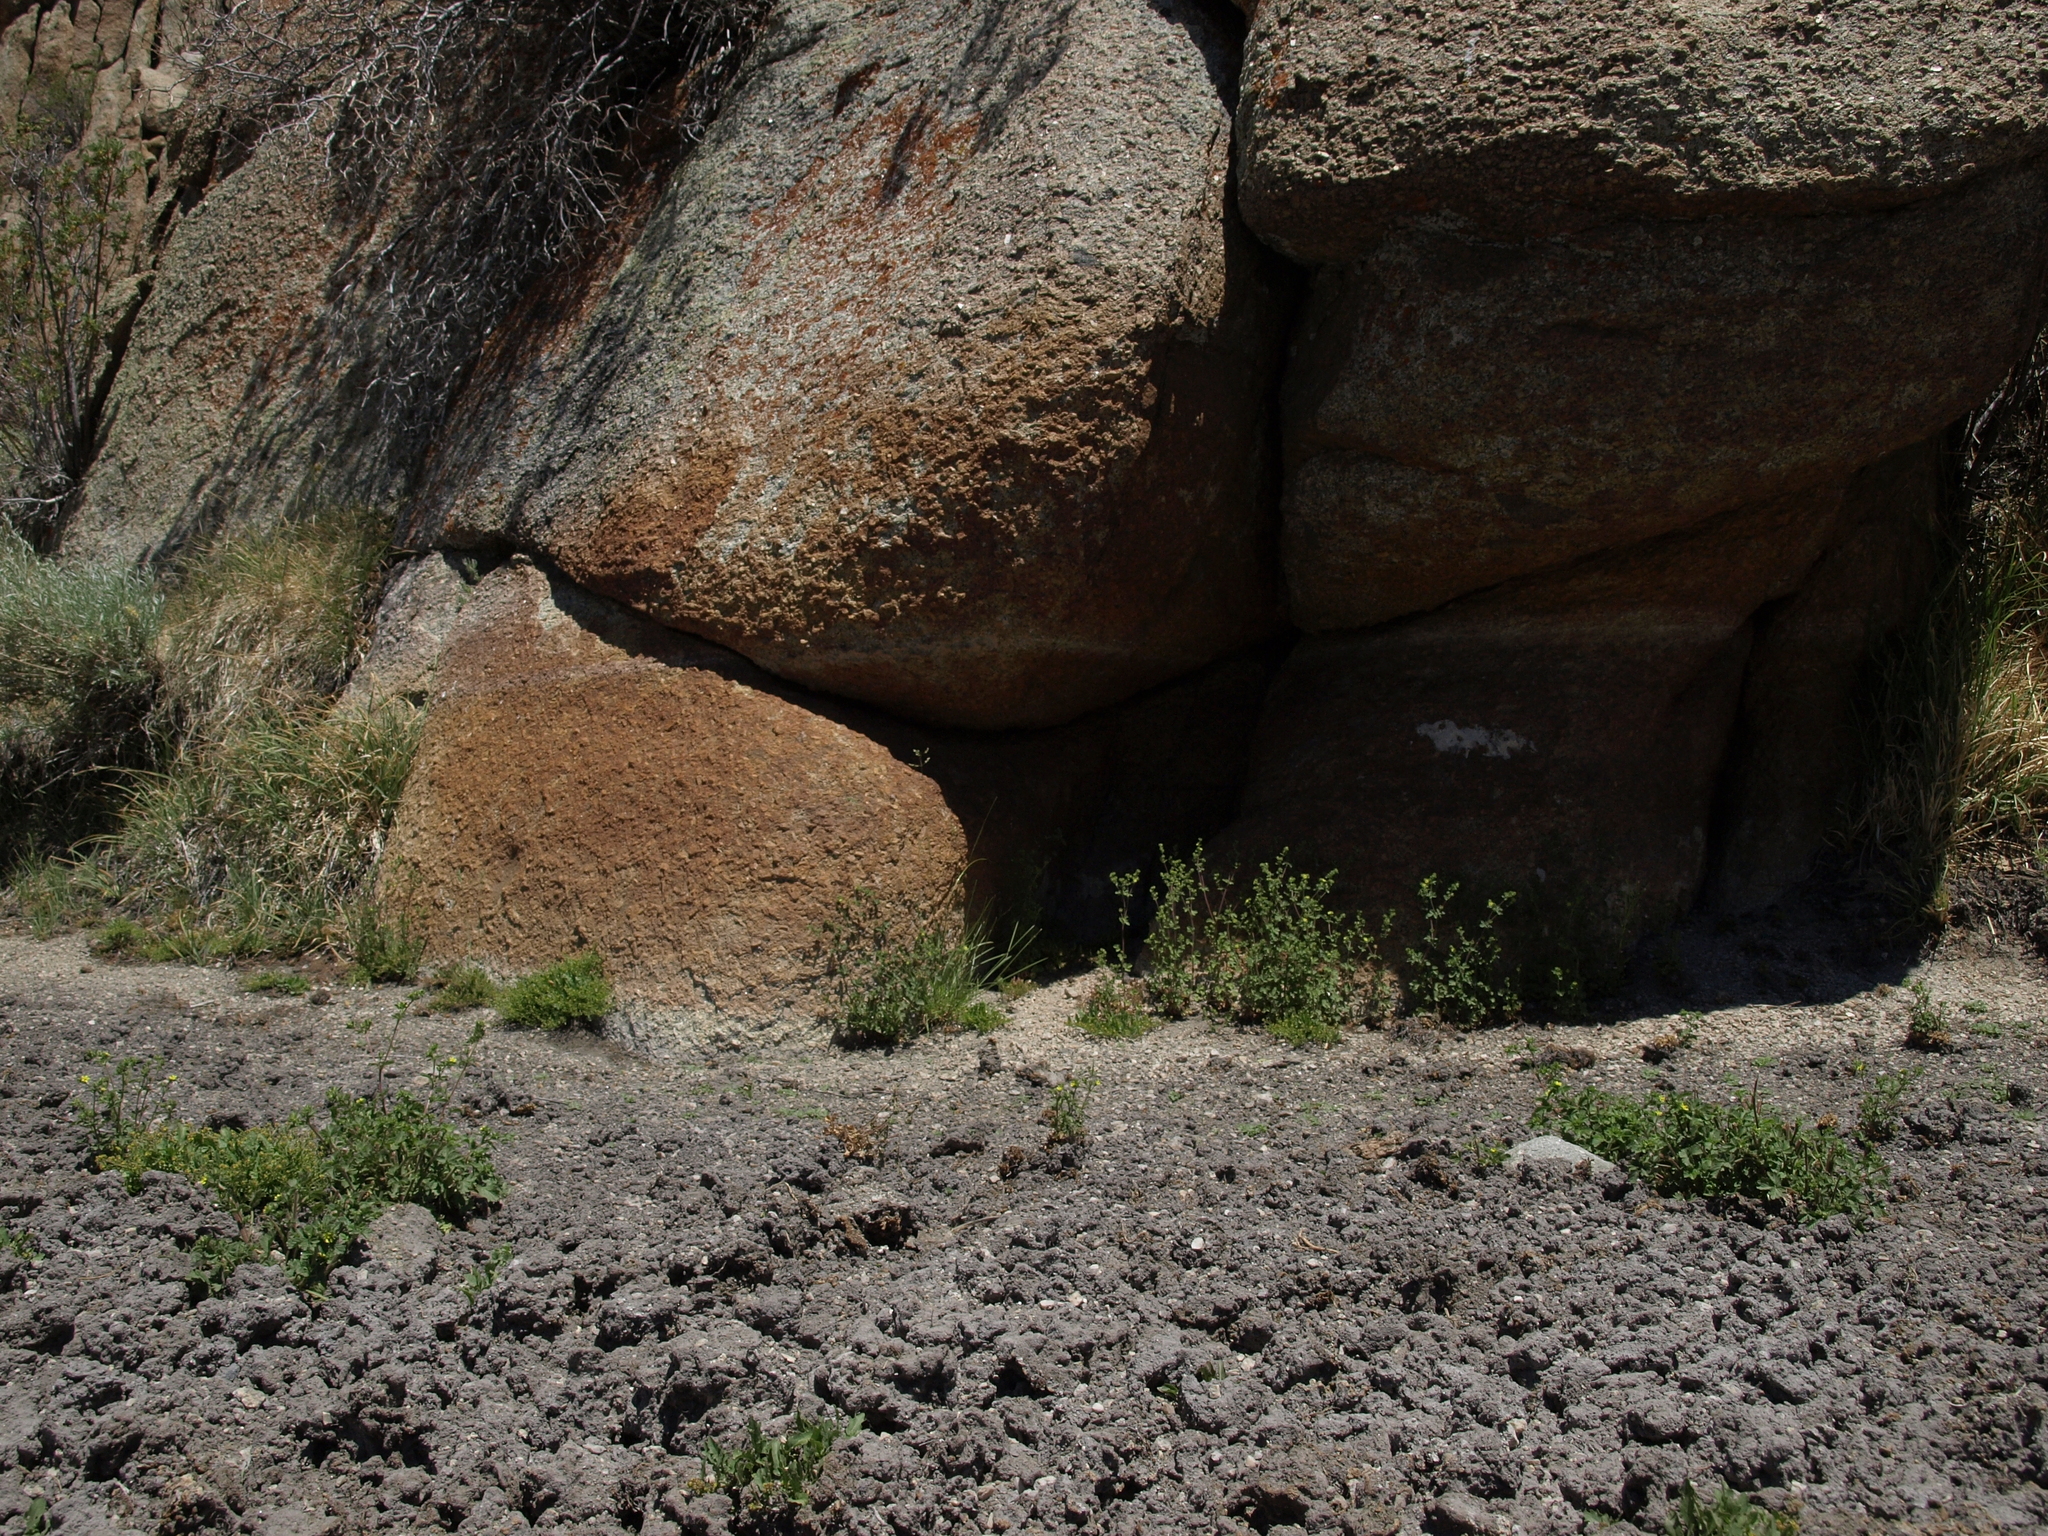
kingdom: Plantae
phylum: Tracheophyta
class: Magnoliopsida
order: Rosales
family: Rosaceae
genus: Potentilla
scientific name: Potentilla biennis
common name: Greene's cinquefoil
